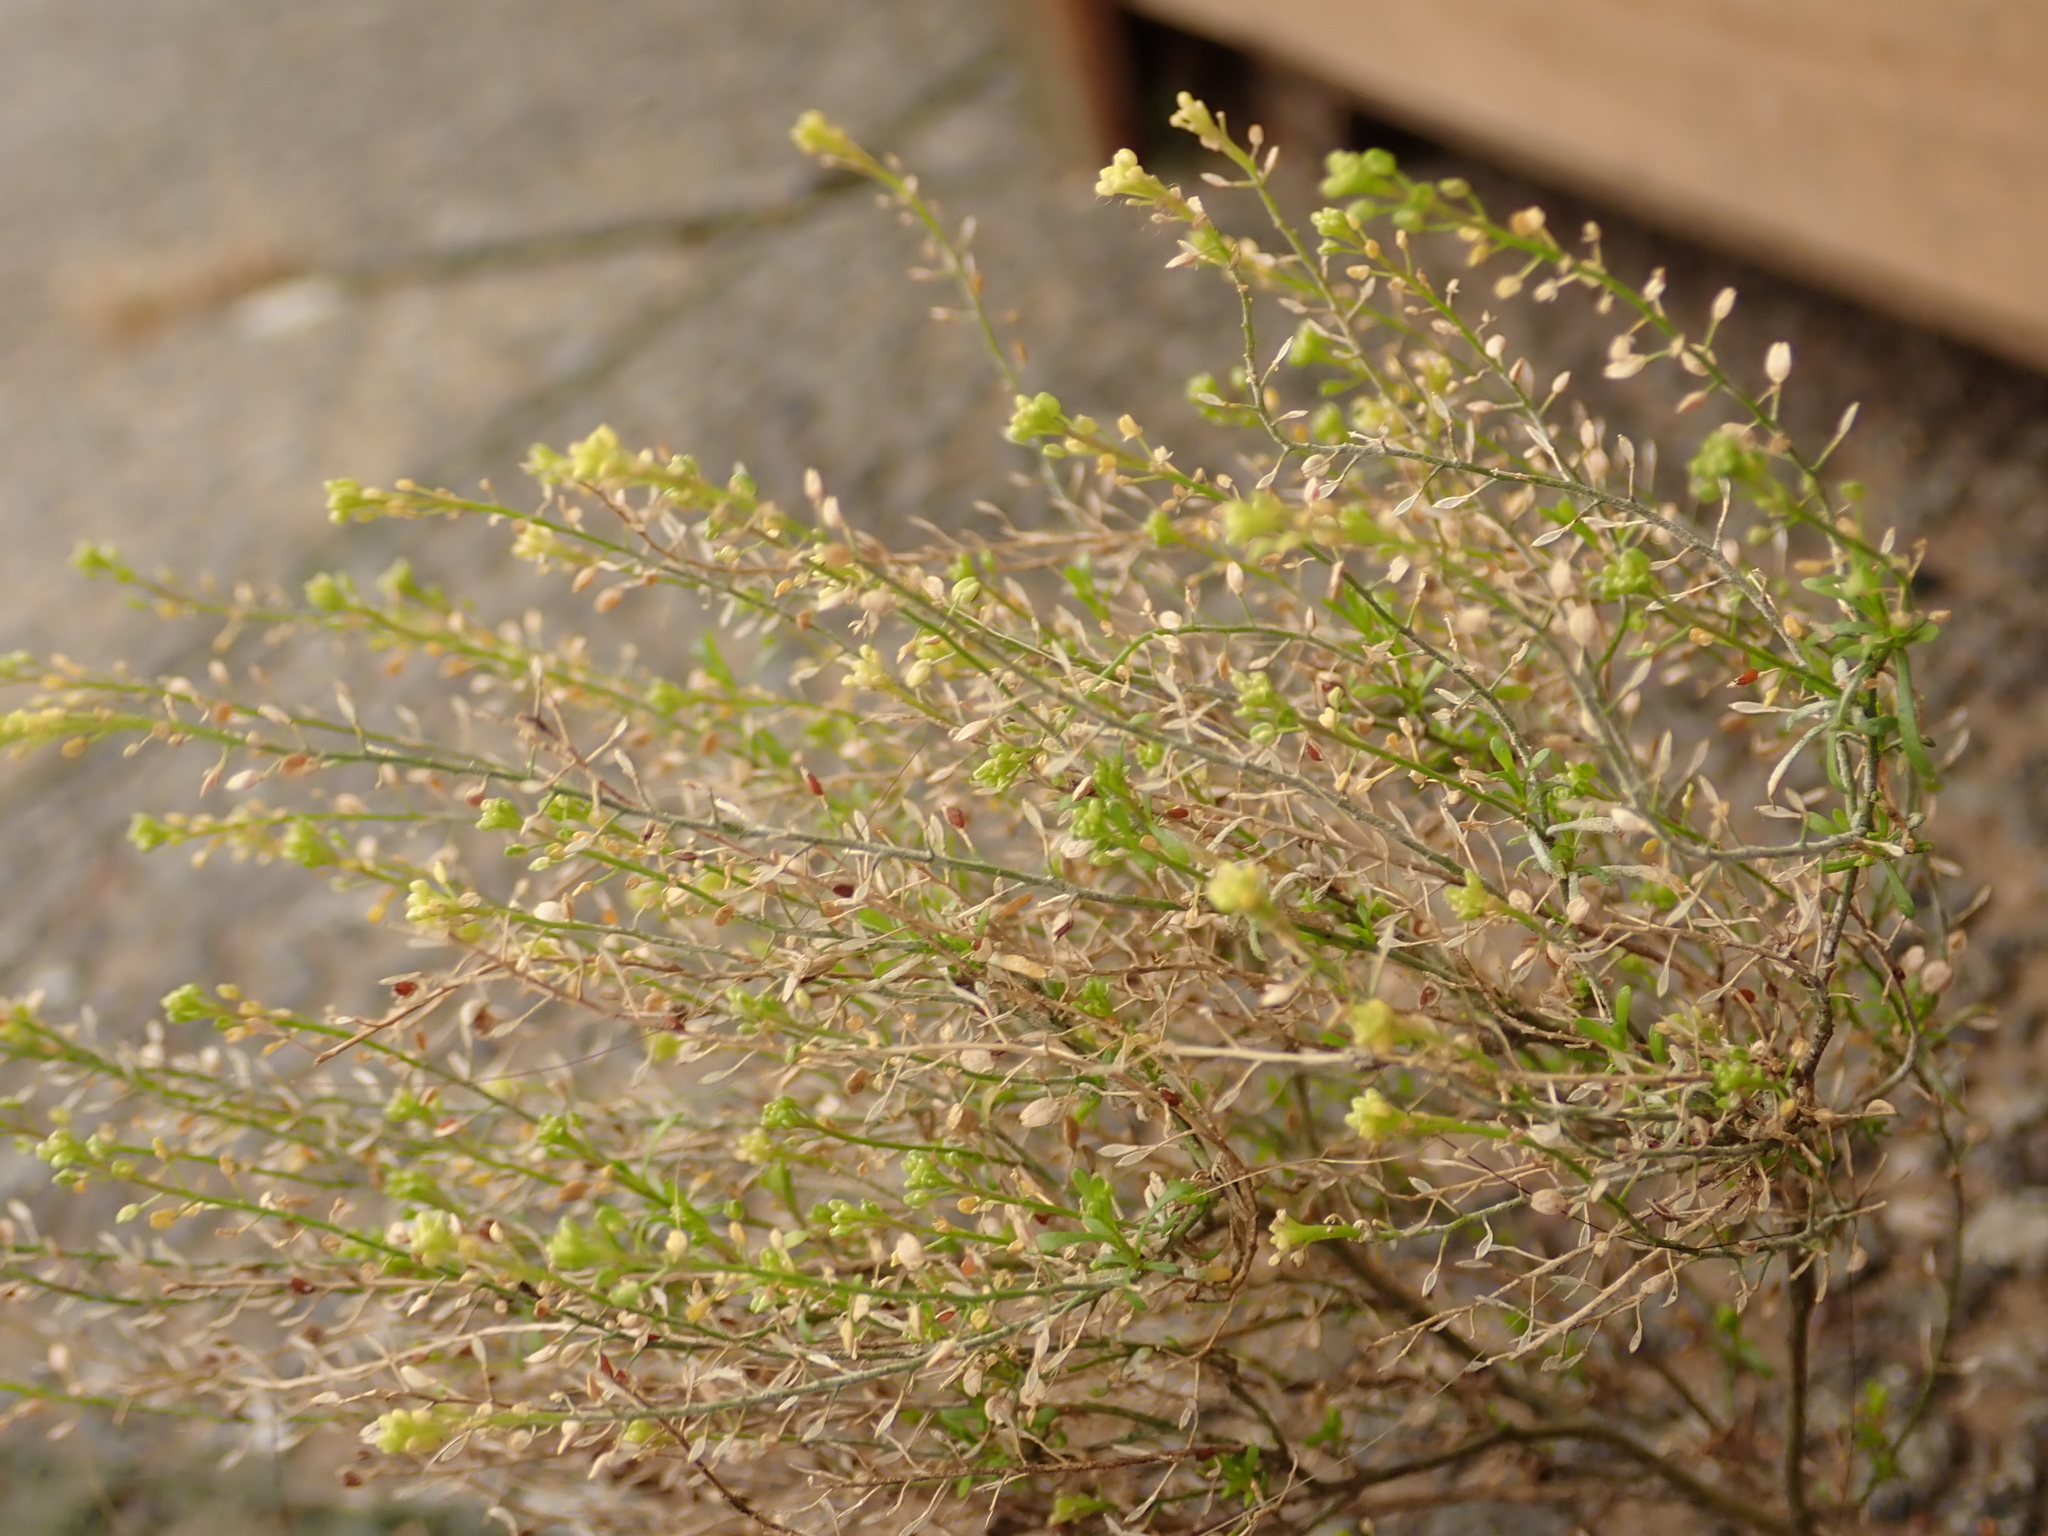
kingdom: Plantae
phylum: Tracheophyta
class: Magnoliopsida
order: Brassicales
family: Brassicaceae
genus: Lepidium
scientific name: Lepidium ruderale
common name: Narrow-leaved pepperwort
